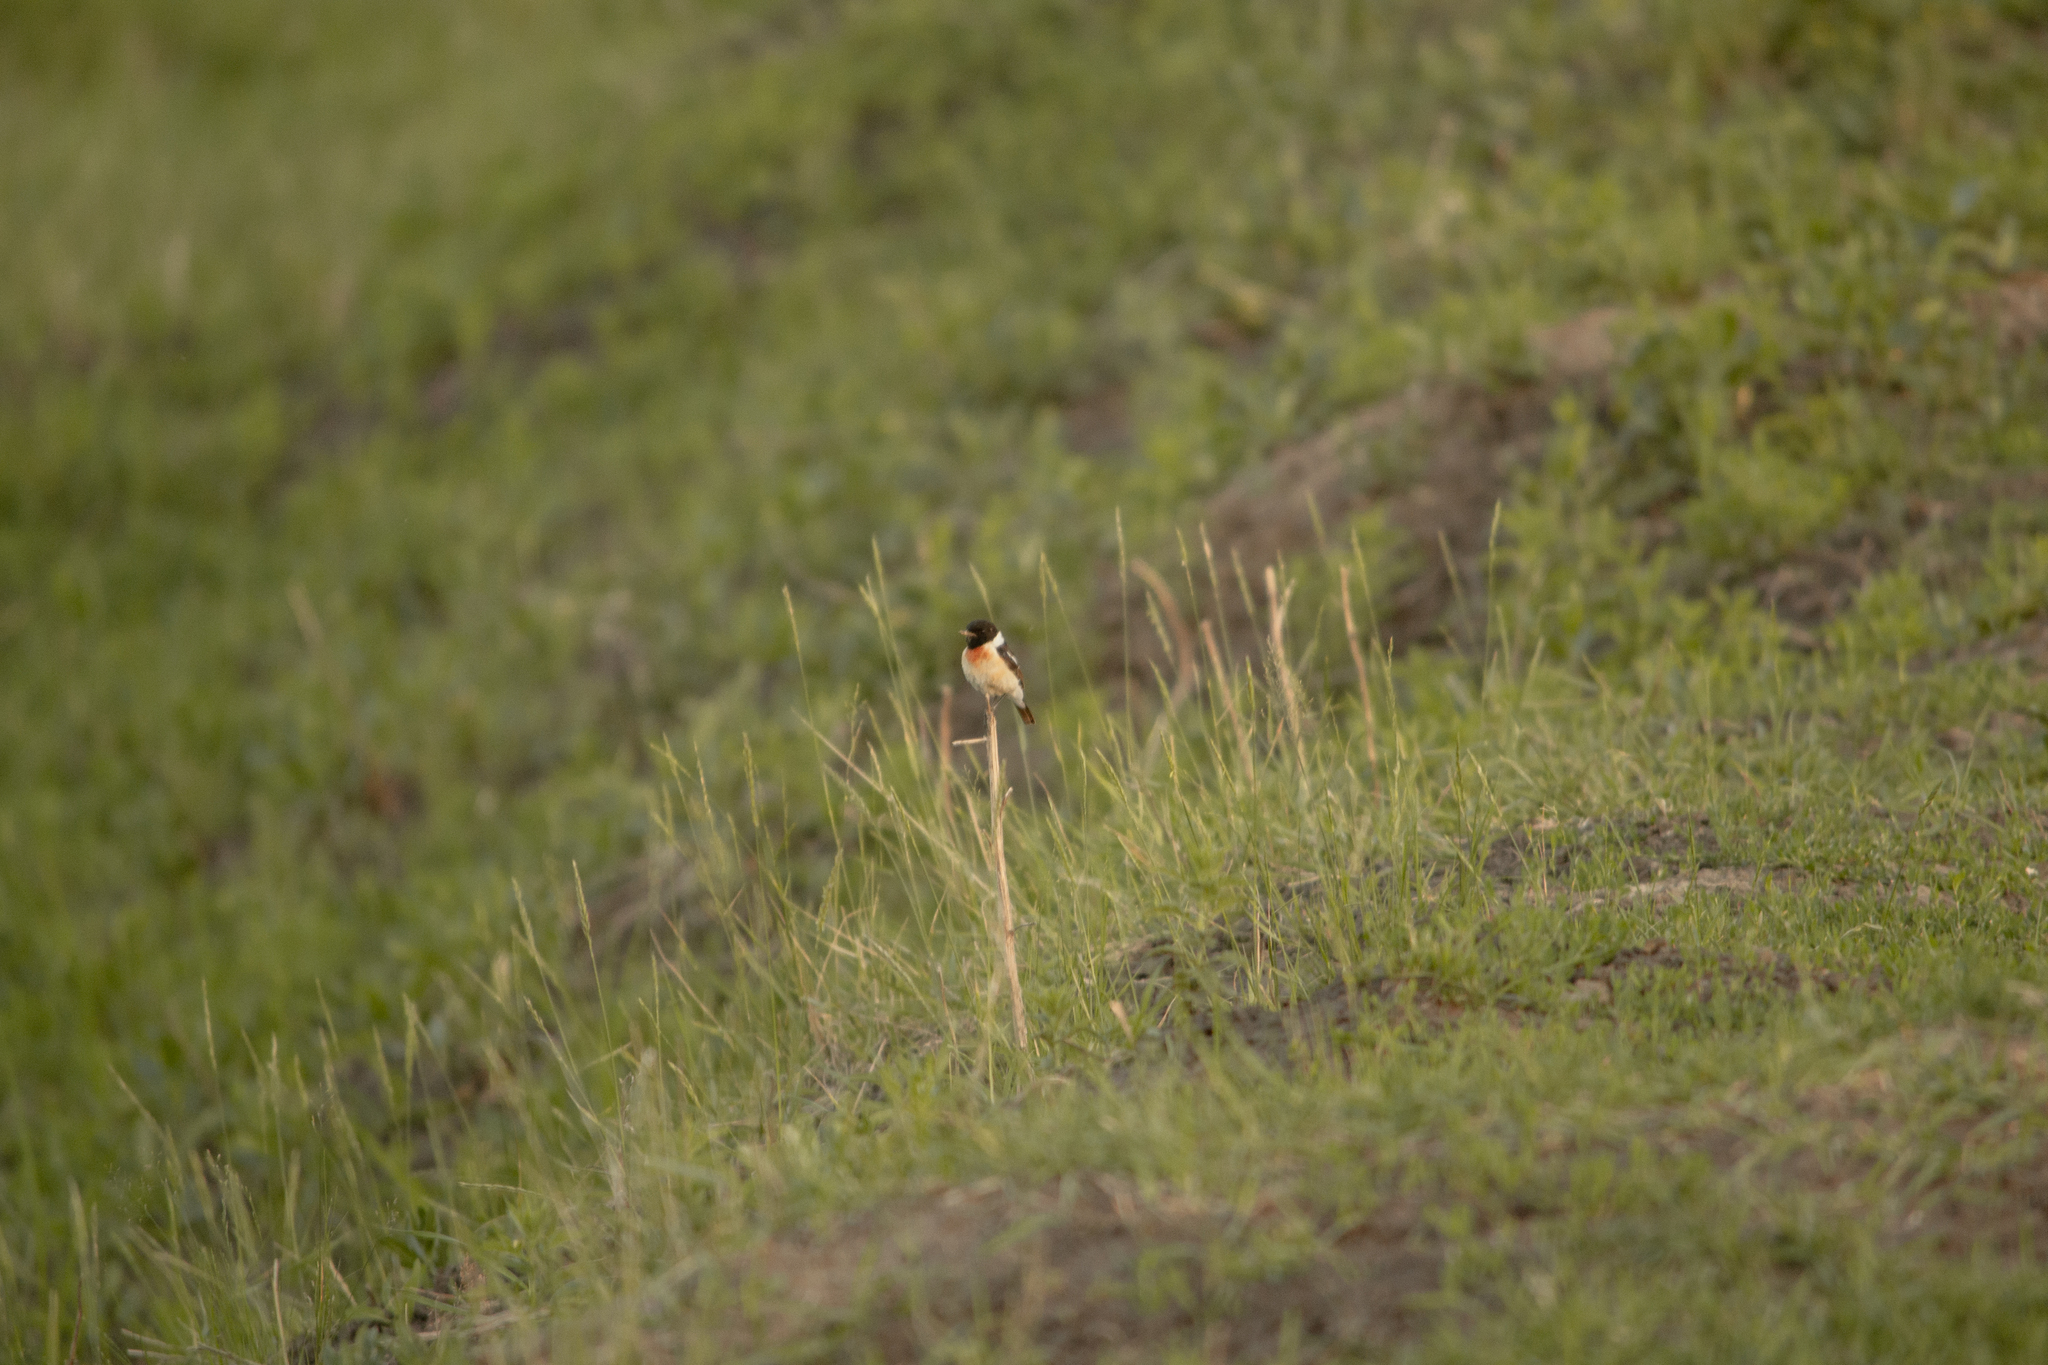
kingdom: Animalia
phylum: Chordata
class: Aves
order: Passeriformes
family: Muscicapidae
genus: Saxicola
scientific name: Saxicola maurus
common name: Siberian stonechat
